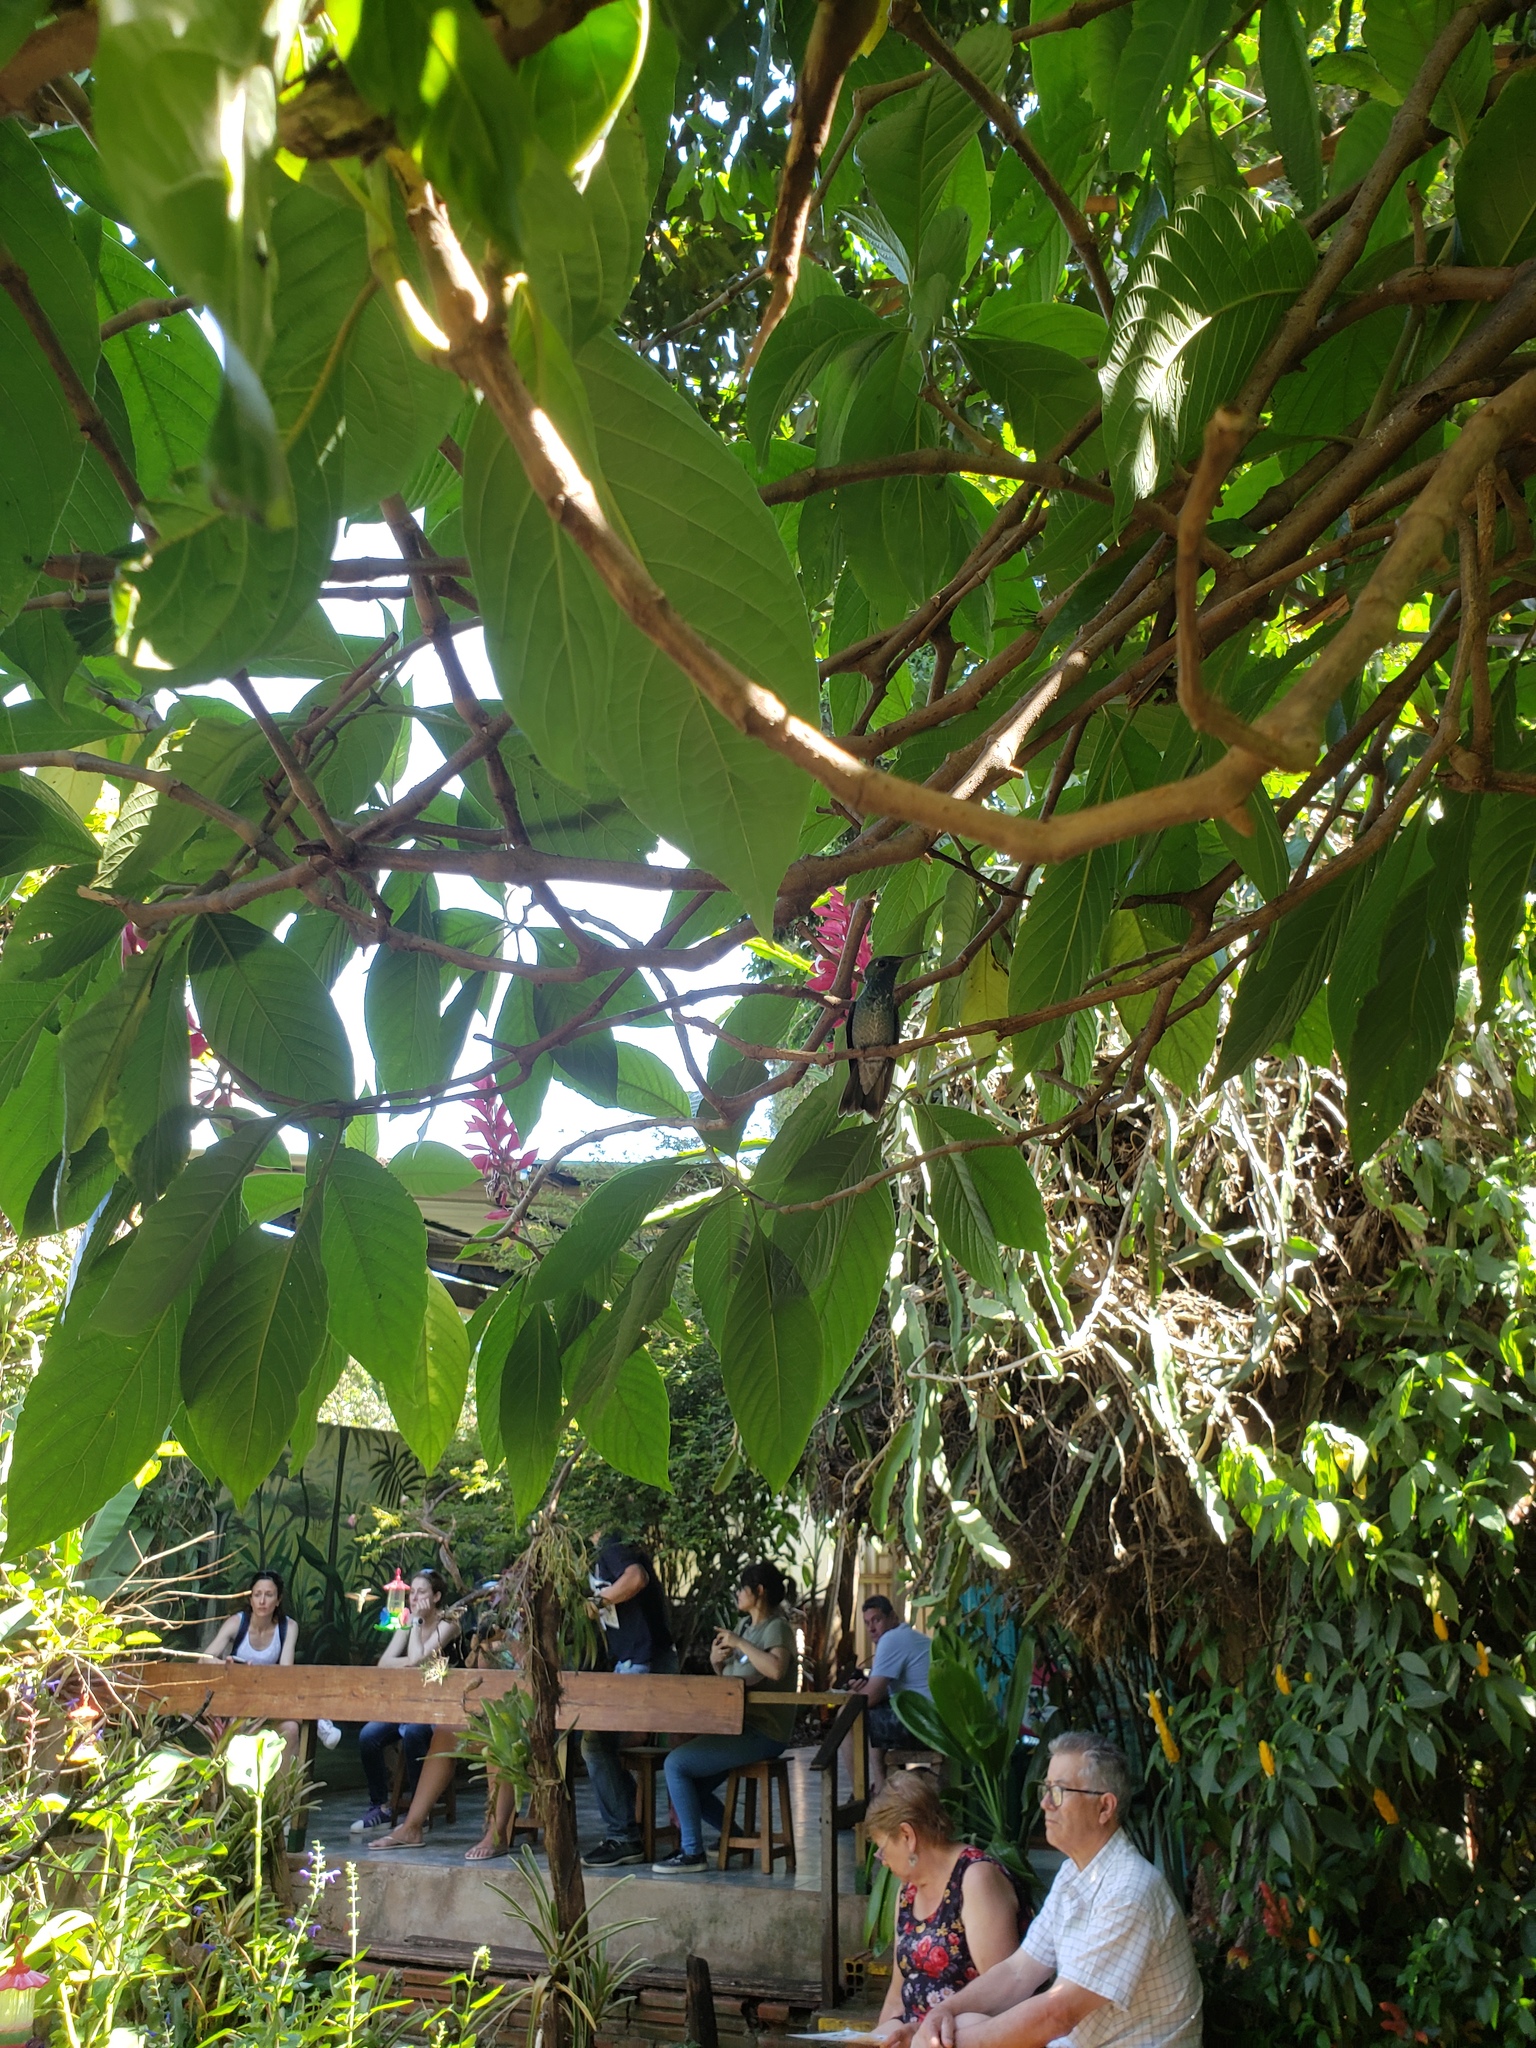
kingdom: Animalia
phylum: Chordata
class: Aves
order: Apodiformes
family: Trochilidae
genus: Chrysuronia
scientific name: Chrysuronia versicolor
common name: Versicolored emerald
